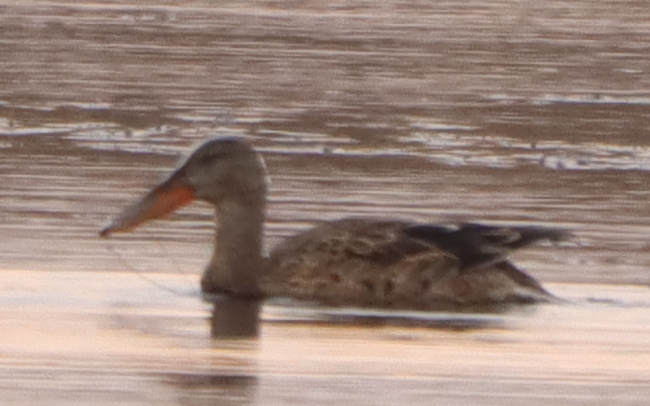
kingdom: Animalia
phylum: Chordata
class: Aves
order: Anseriformes
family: Anatidae
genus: Spatula
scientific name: Spatula clypeata
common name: Northern shoveler
